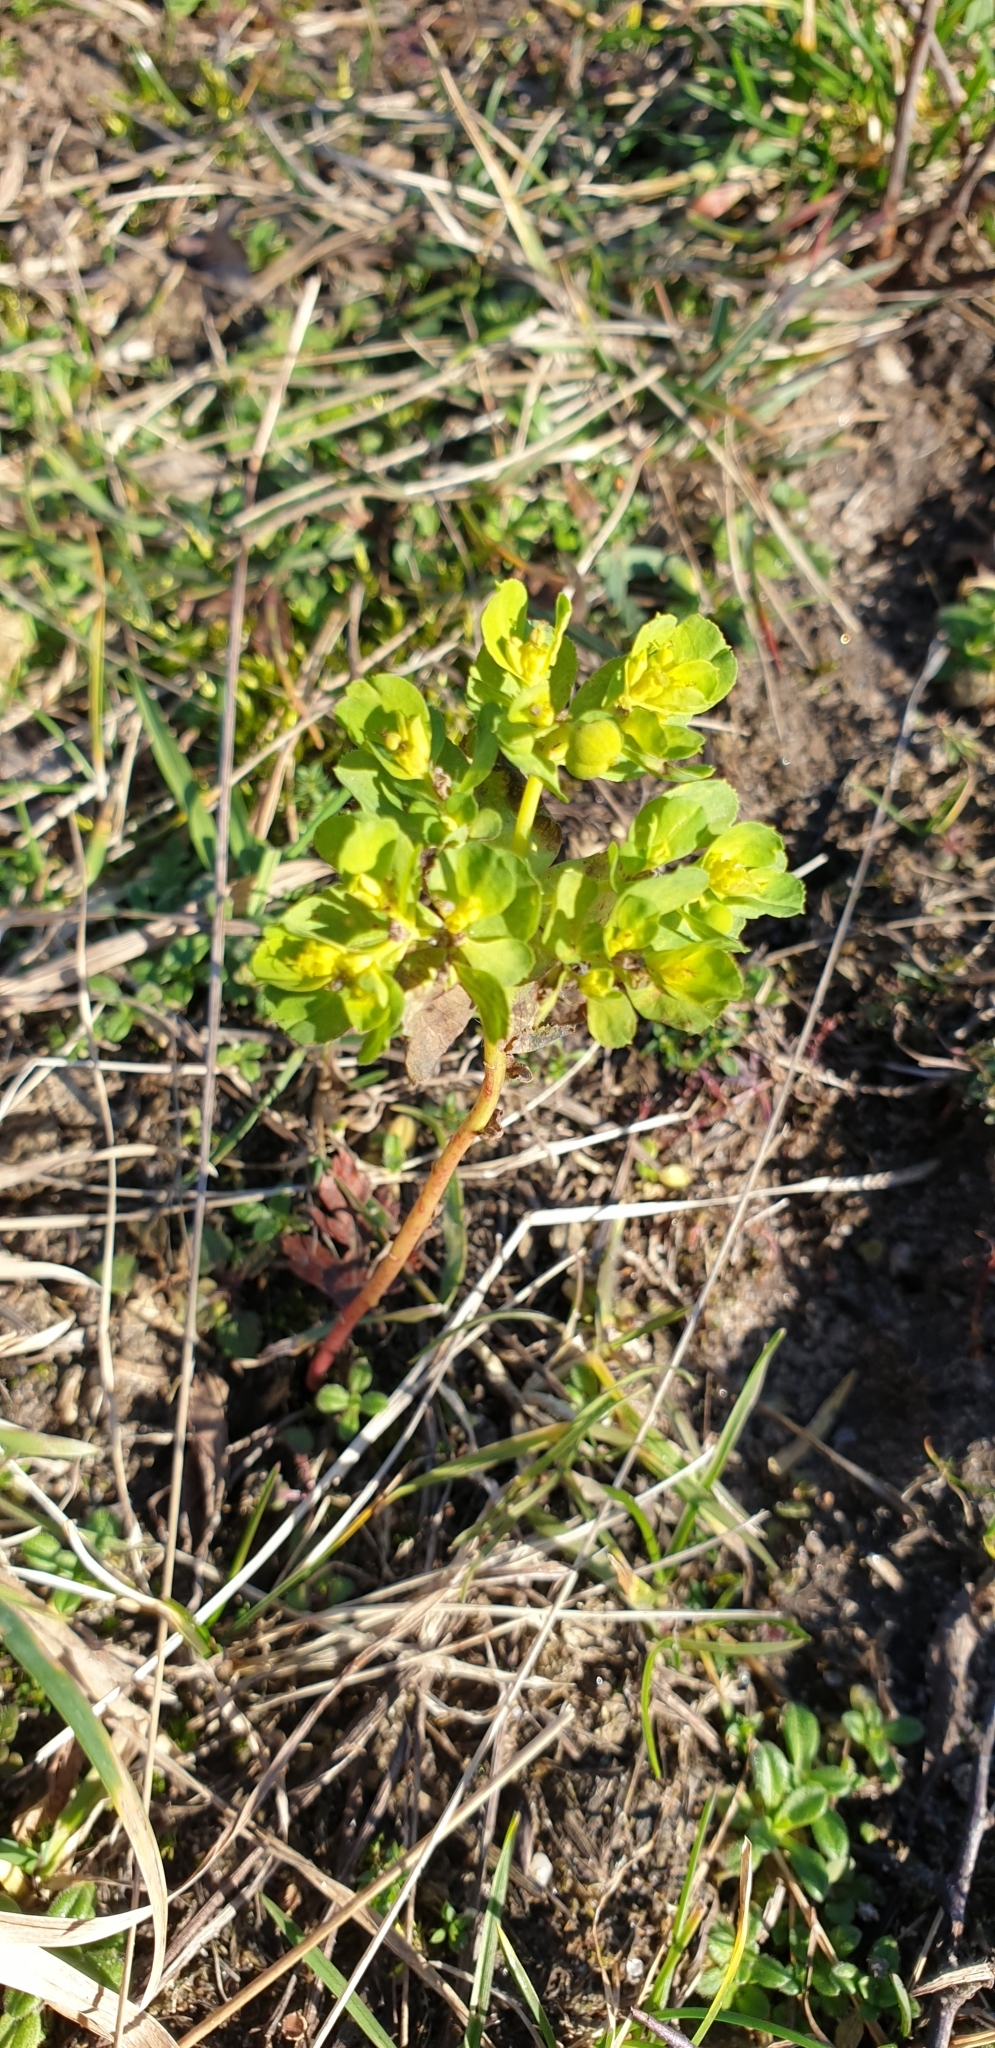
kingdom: Plantae
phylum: Tracheophyta
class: Magnoliopsida
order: Malpighiales
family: Euphorbiaceae
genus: Euphorbia
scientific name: Euphorbia helioscopia
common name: Sun spurge
